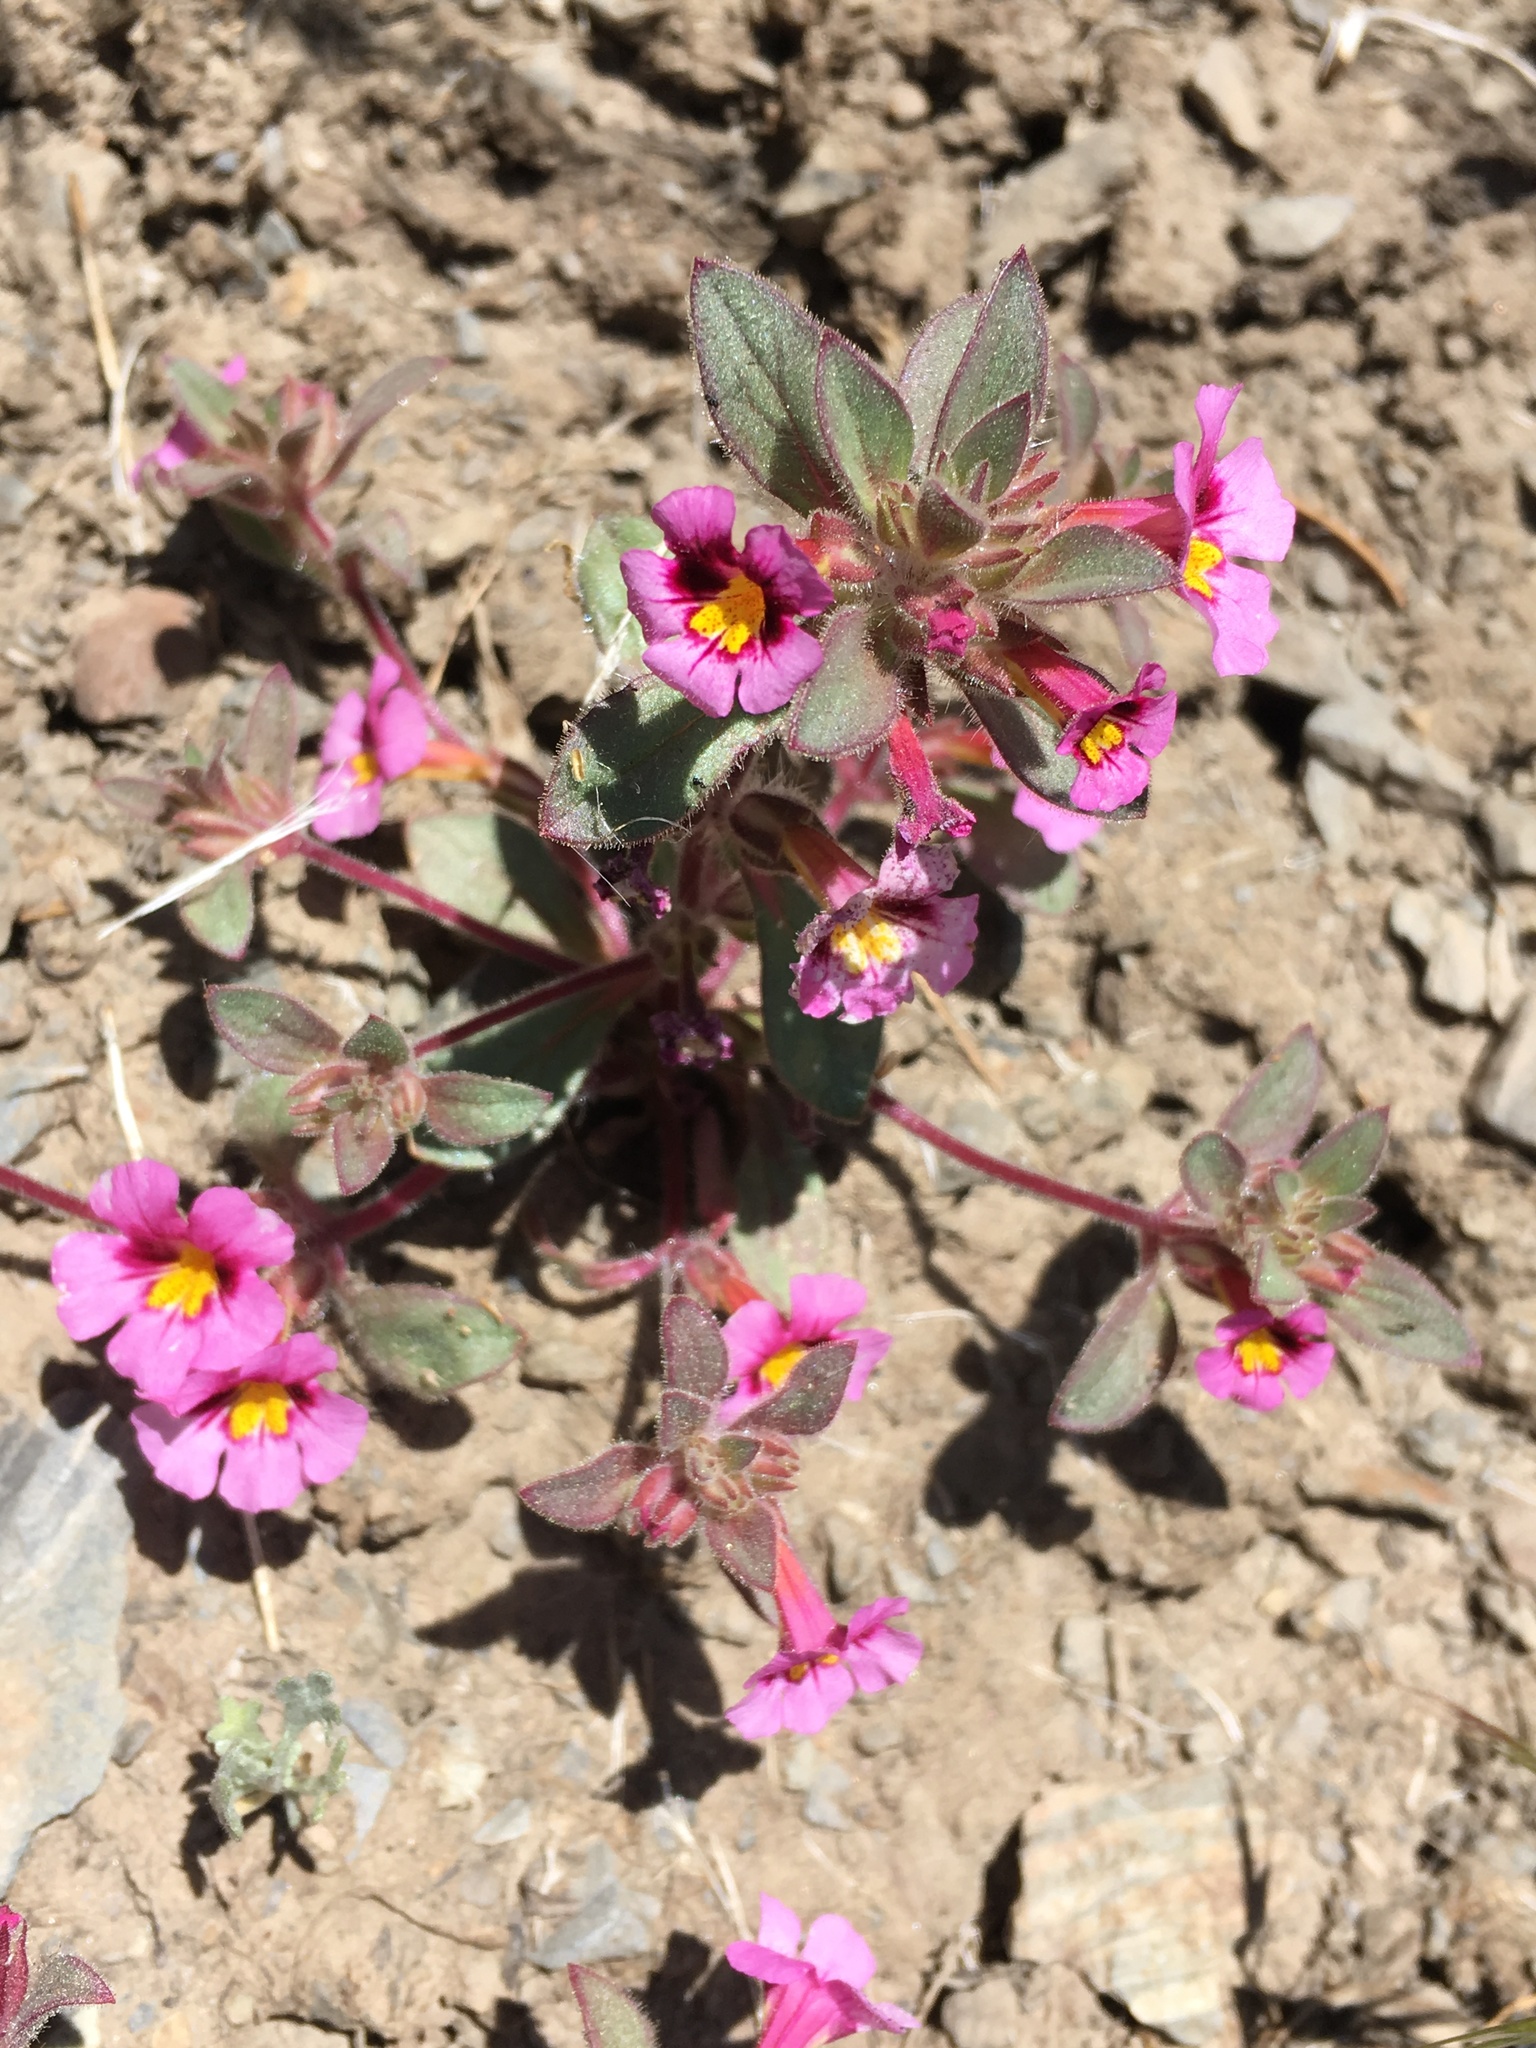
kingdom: Plantae
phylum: Tracheophyta
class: Magnoliopsida
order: Lamiales
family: Phrymaceae
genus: Diplacus
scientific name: Diplacus bigelovii
